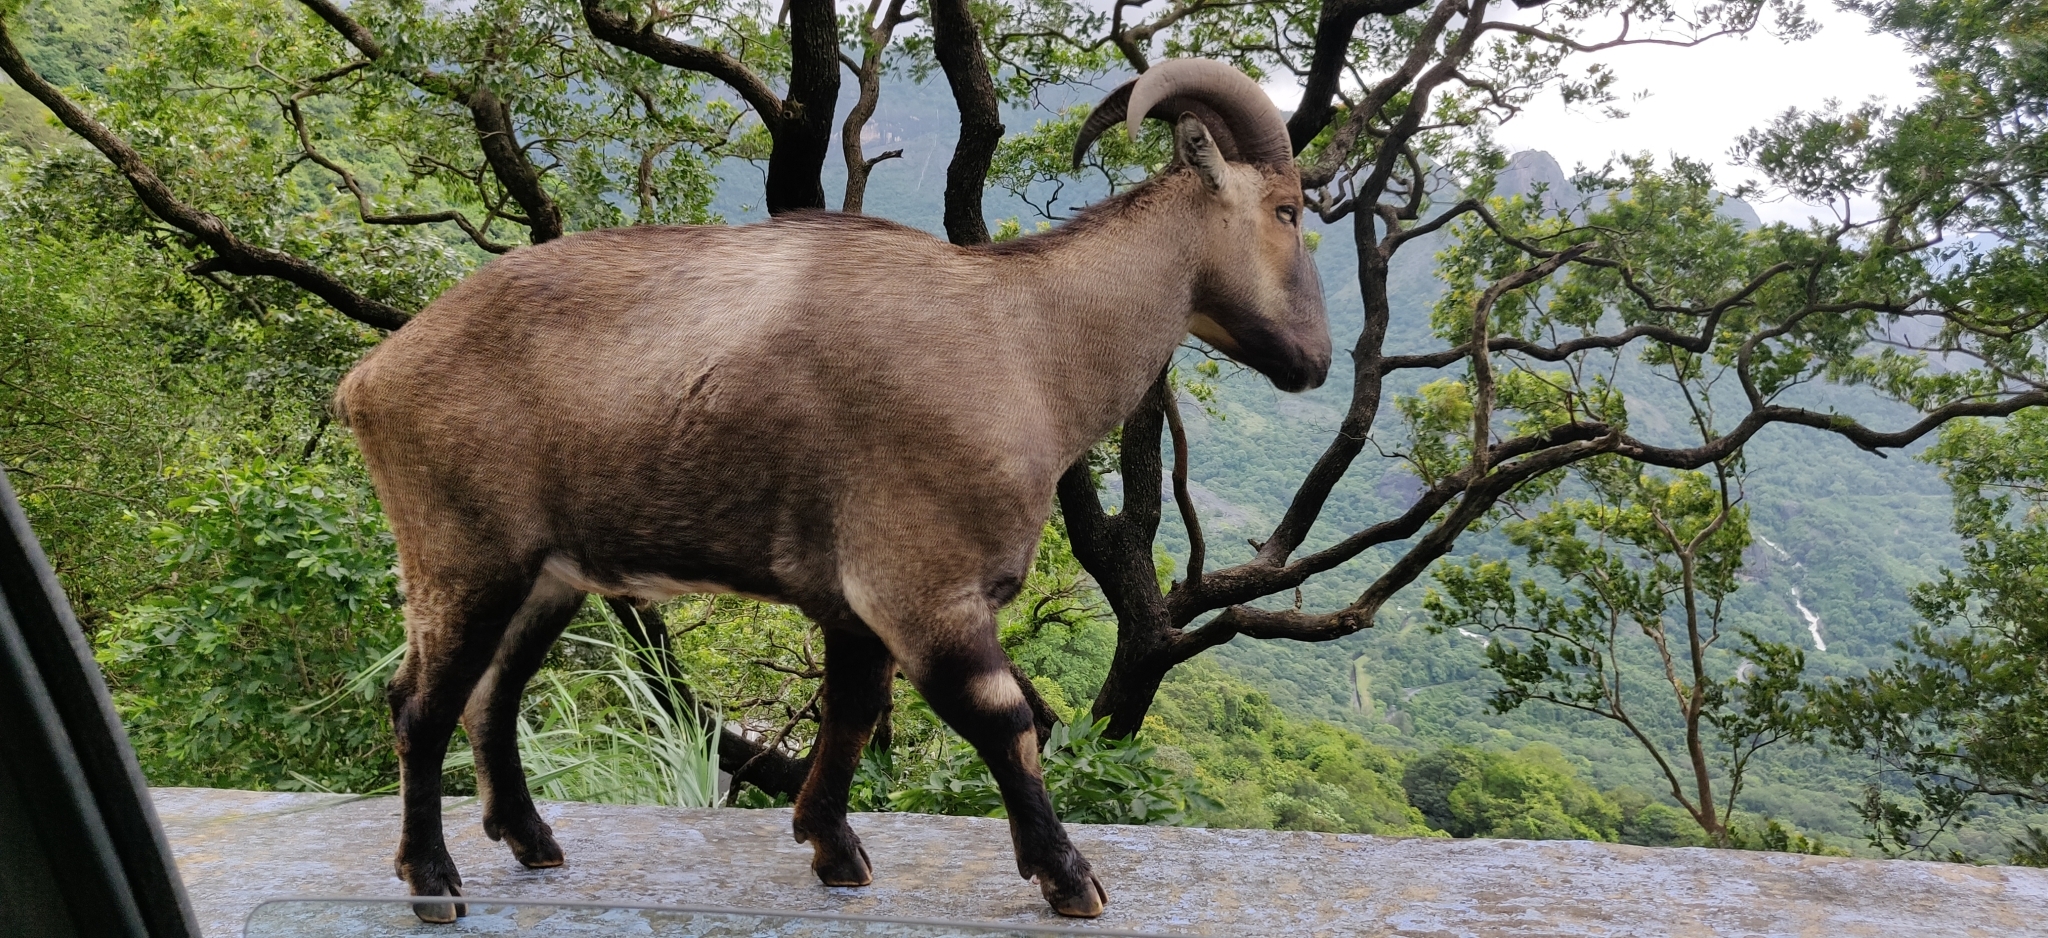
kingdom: Animalia
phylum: Chordata
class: Mammalia
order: Artiodactyla
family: Bovidae
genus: Hemitragus
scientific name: Hemitragus hylocrius
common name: Nilgiri tahr
